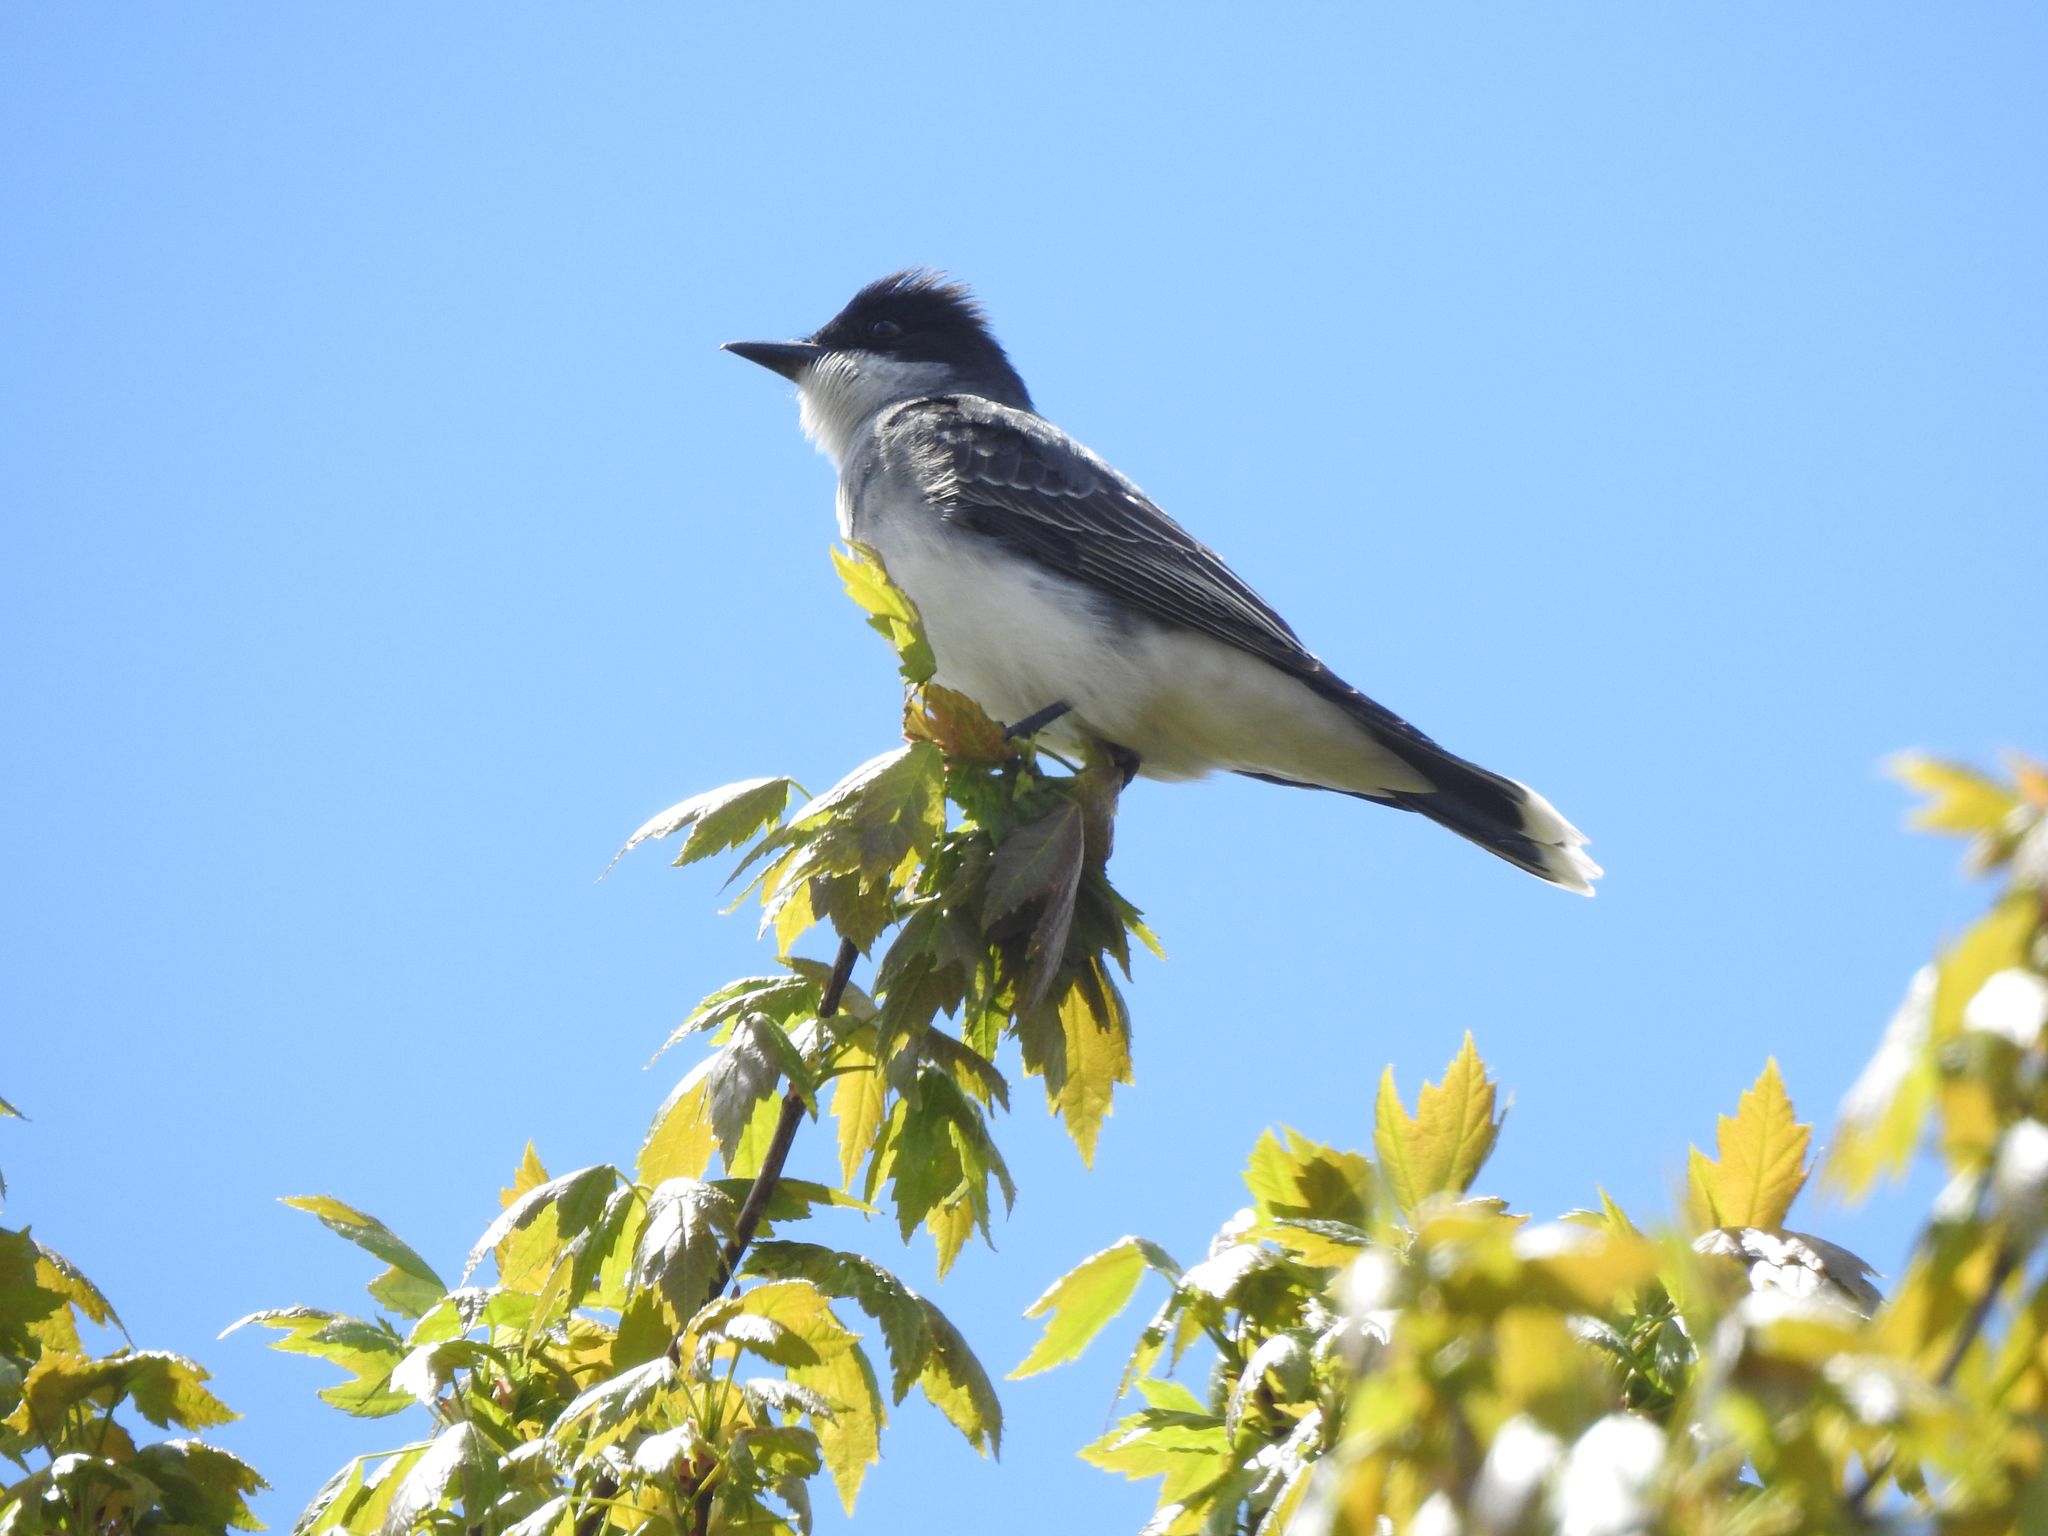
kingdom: Animalia
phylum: Chordata
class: Aves
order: Passeriformes
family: Tyrannidae
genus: Tyrannus
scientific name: Tyrannus tyrannus
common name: Eastern kingbird
